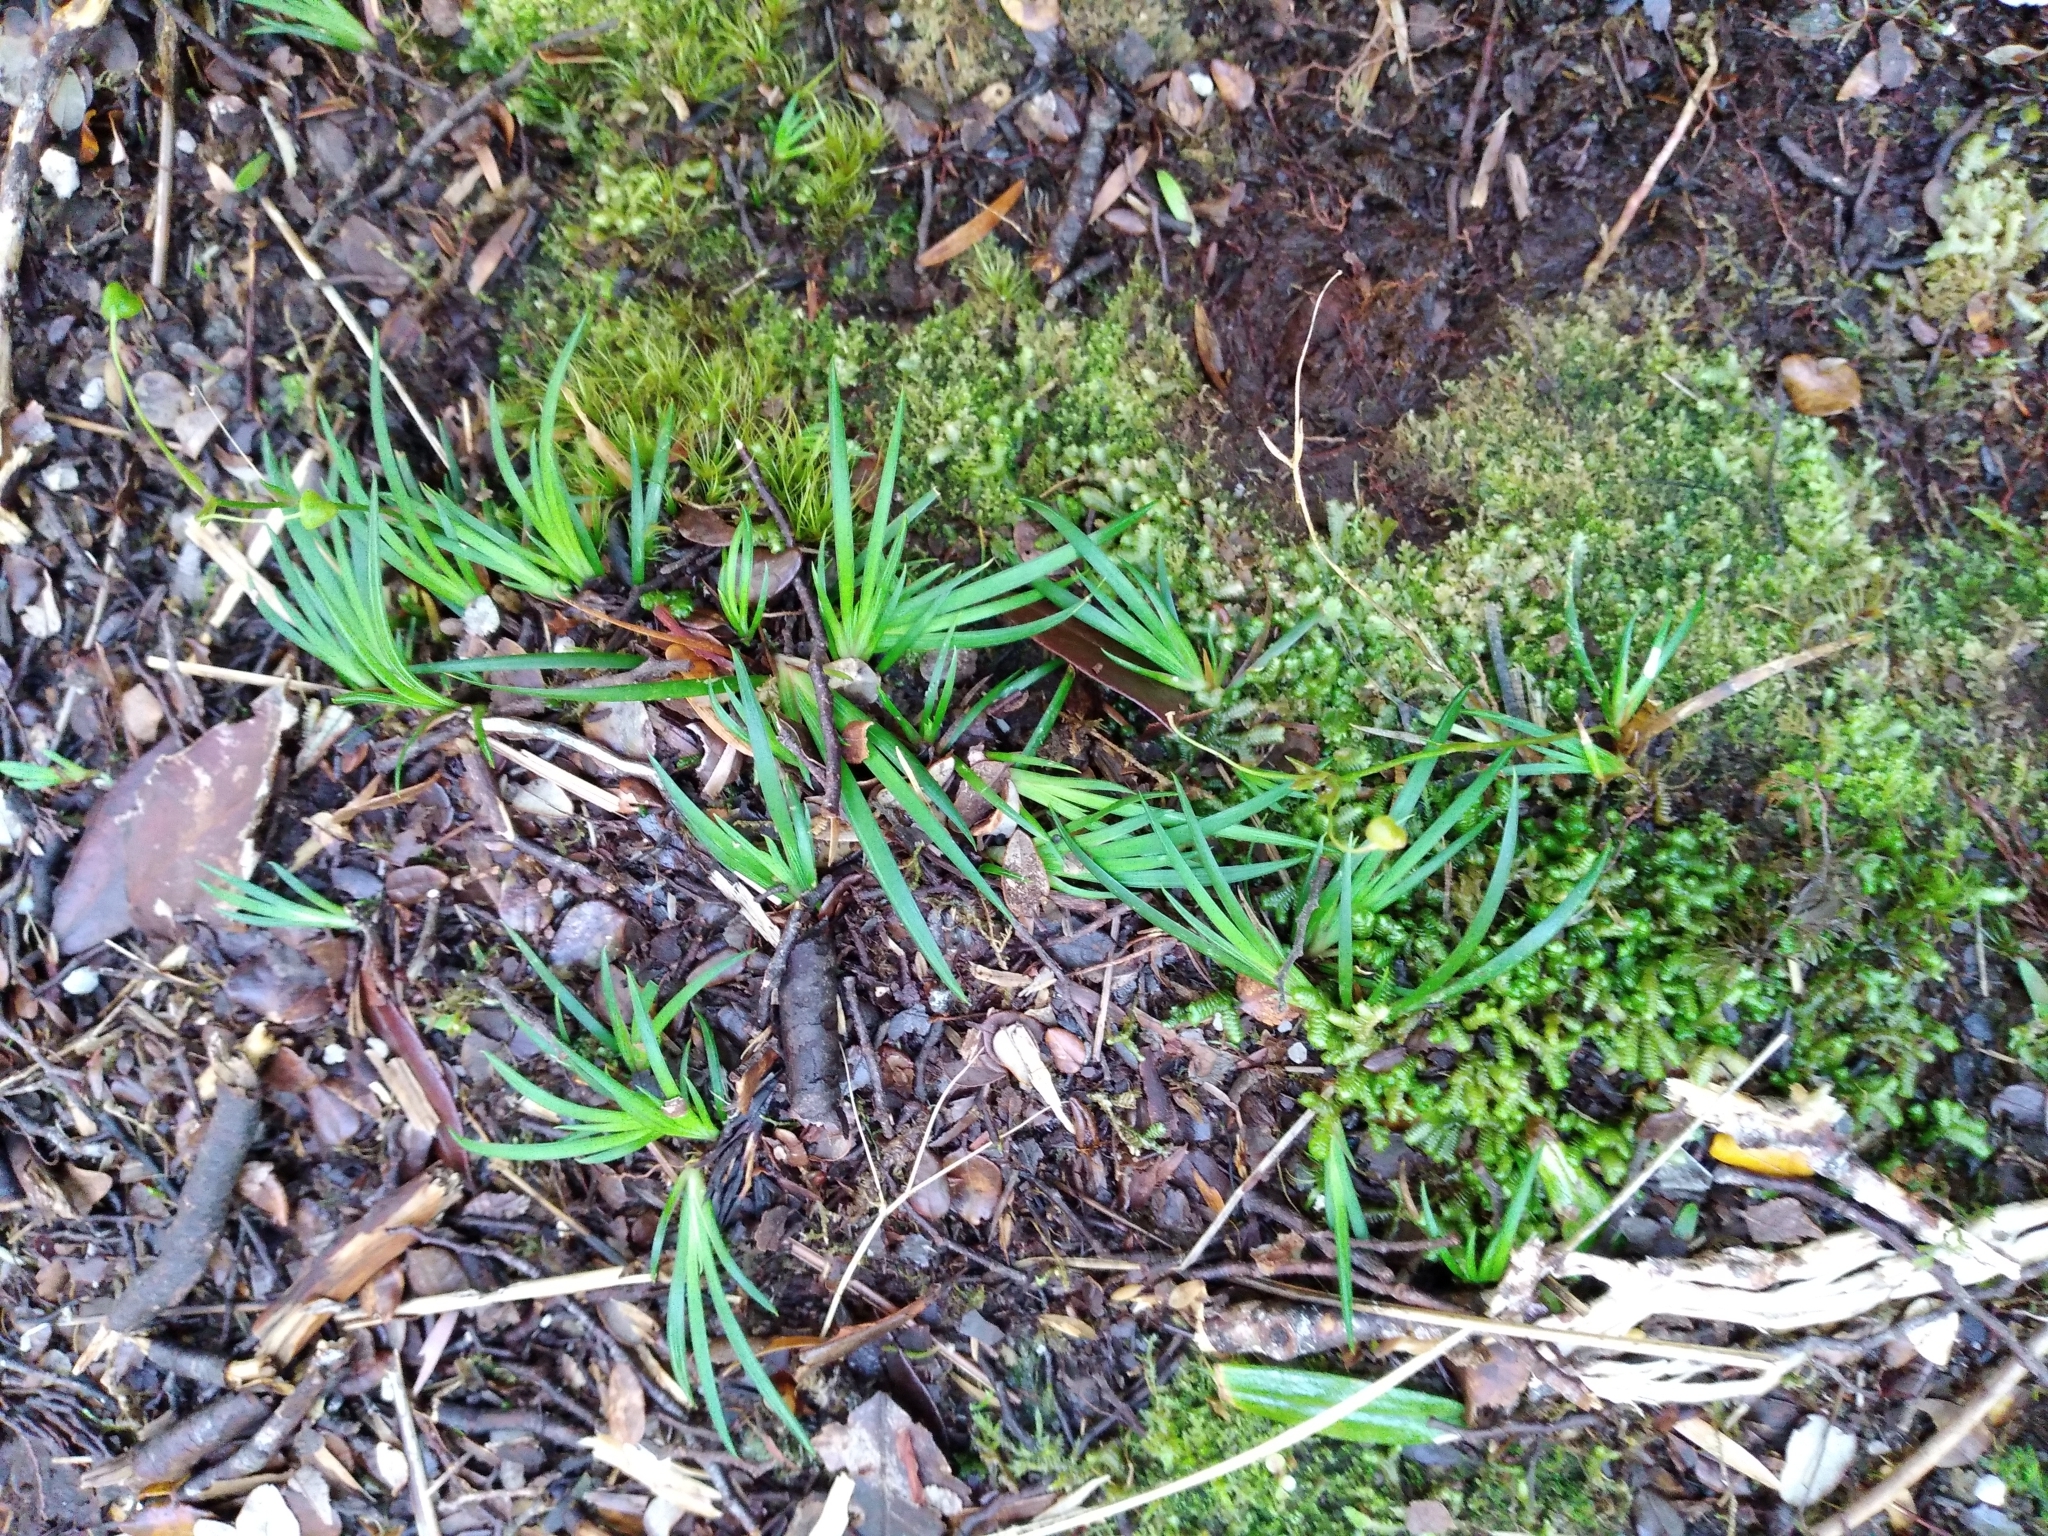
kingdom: Plantae
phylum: Tracheophyta
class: Liliopsida
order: Asparagales
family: Iridaceae
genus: Libertia
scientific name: Libertia micrantha
